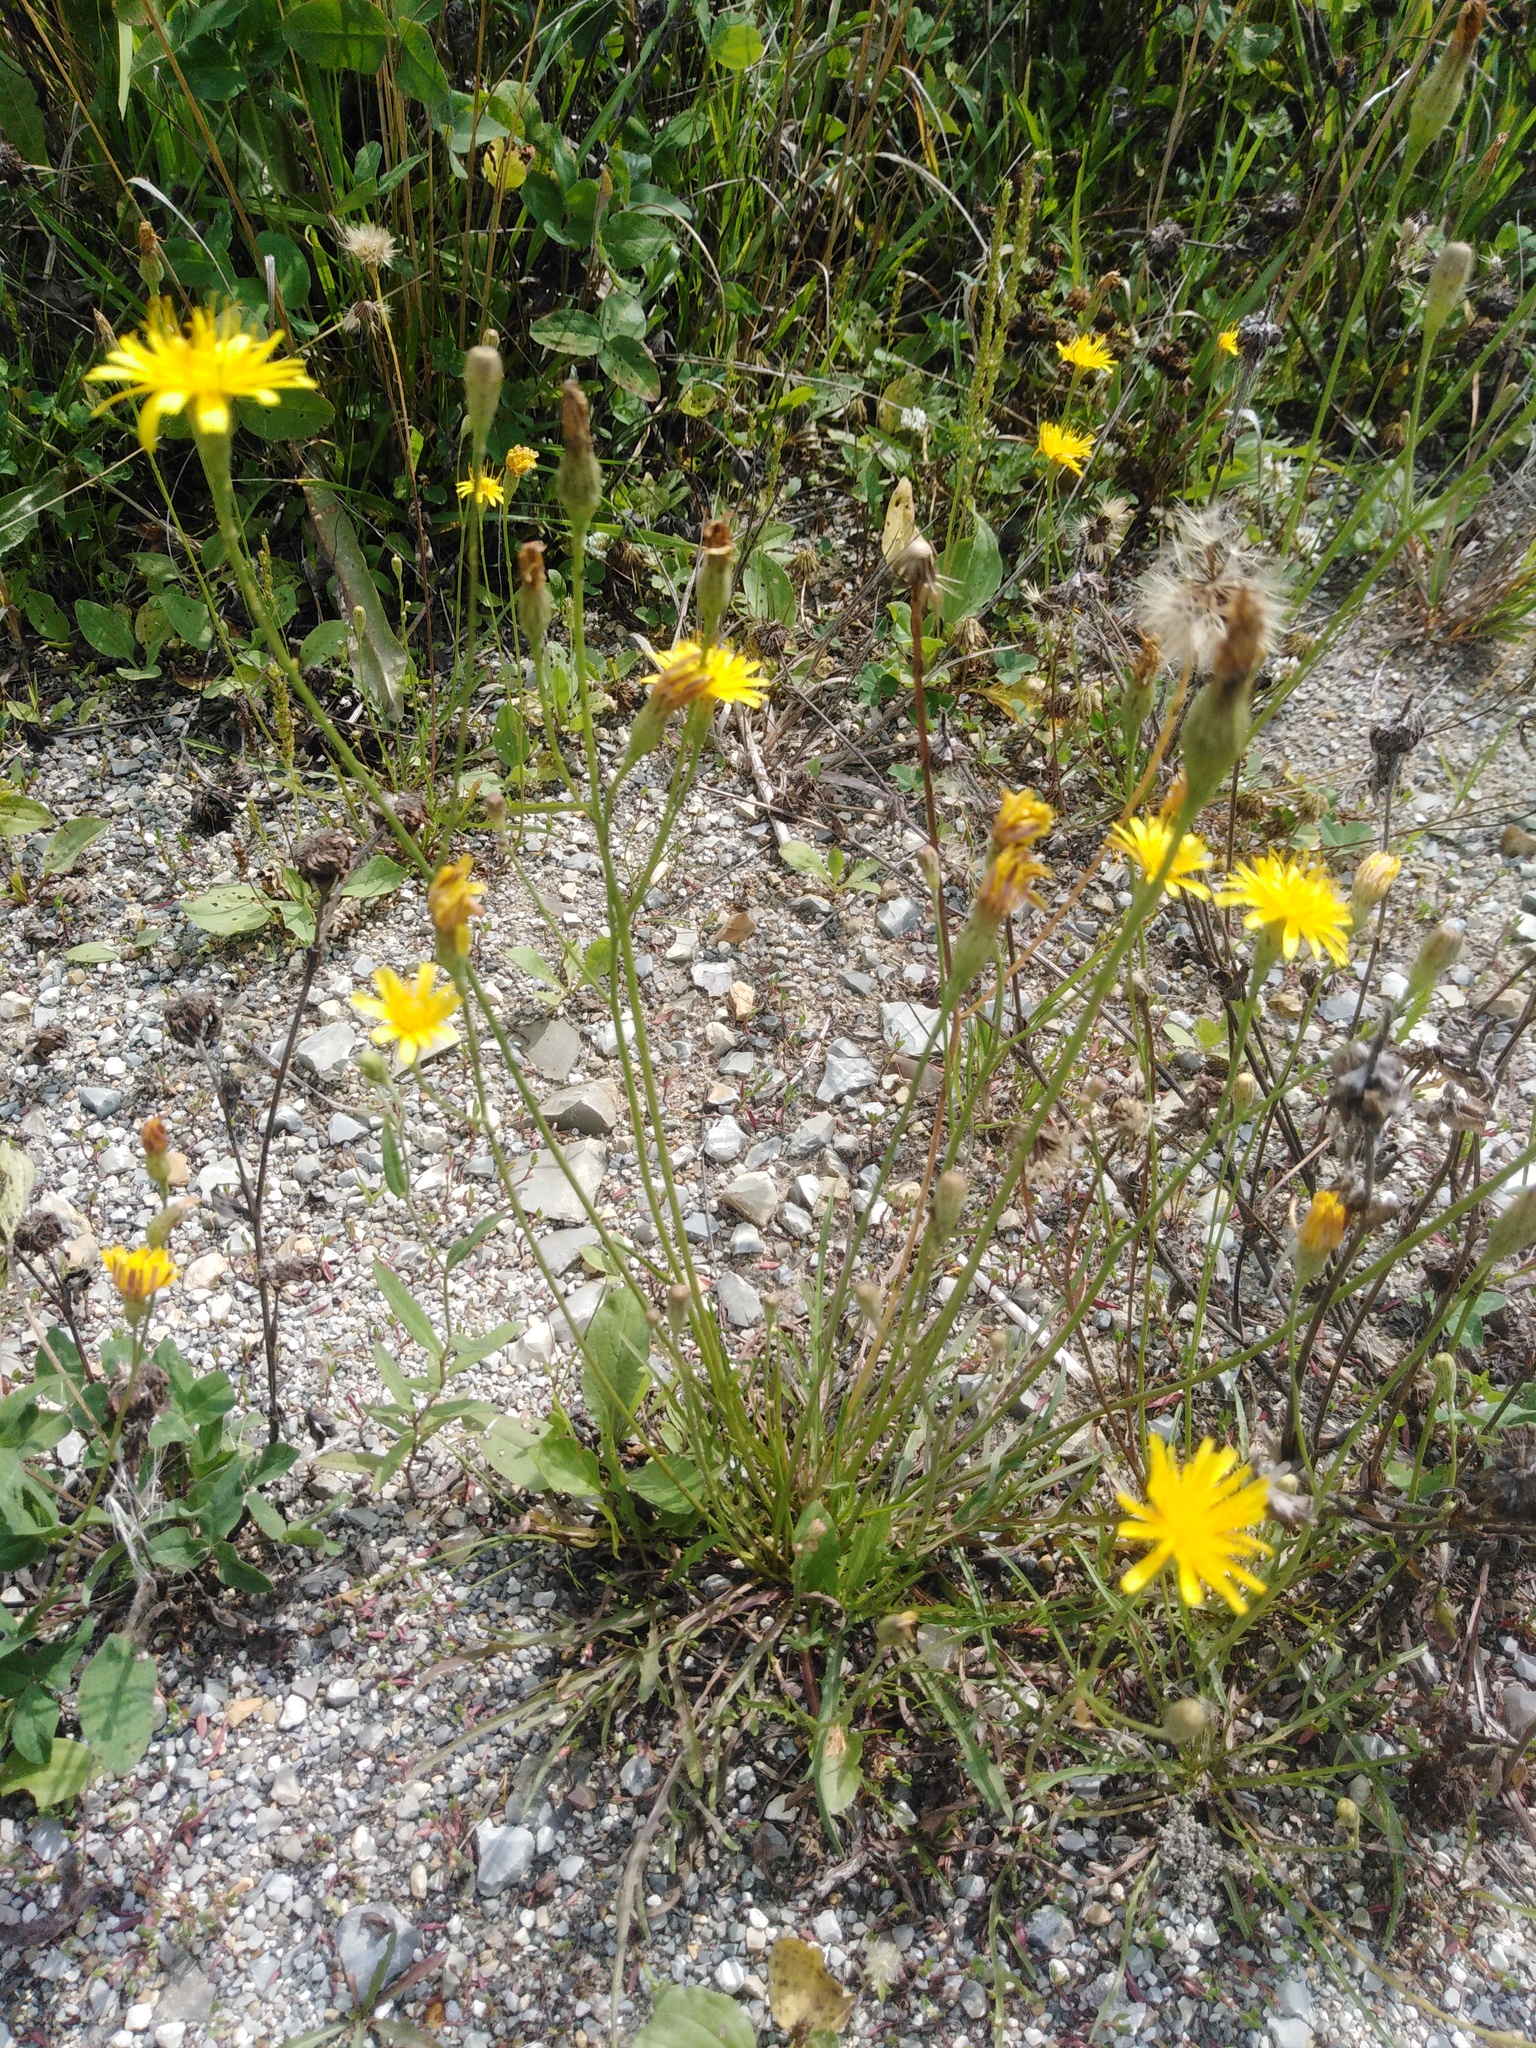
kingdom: Plantae
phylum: Tracheophyta
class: Magnoliopsida
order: Asterales
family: Asteraceae
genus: Scorzoneroides
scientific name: Scorzoneroides autumnalis
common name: Autumn hawkbit
